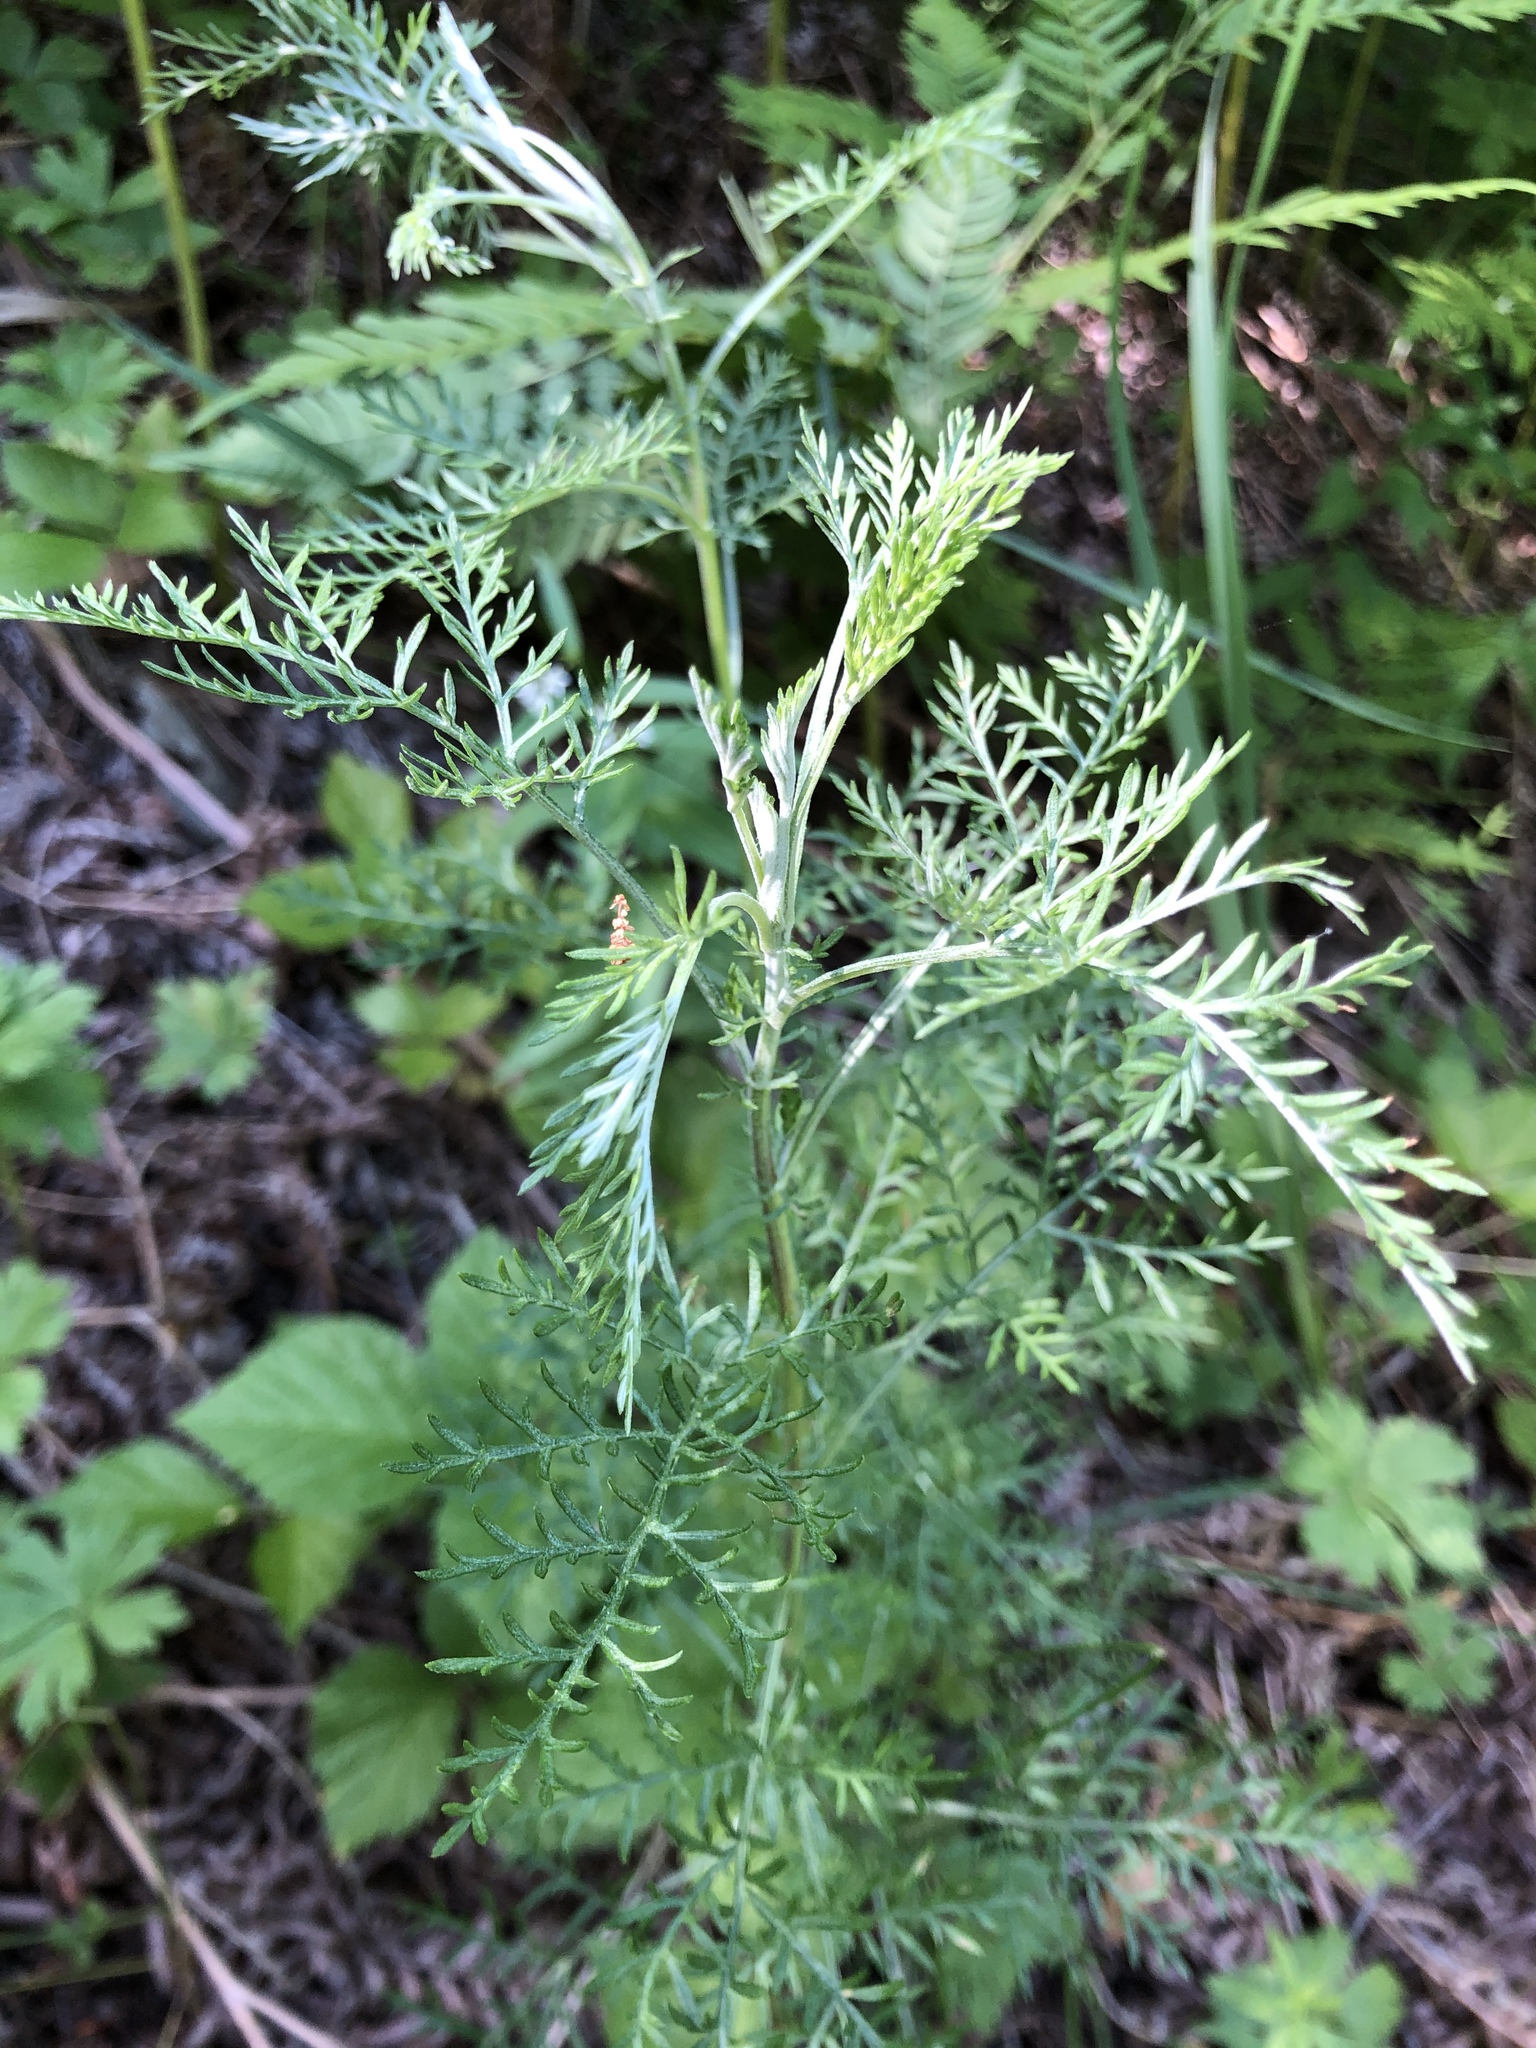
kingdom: Plantae
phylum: Tracheophyta
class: Magnoliopsida
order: Asterales
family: Asteraceae
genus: Artemisia
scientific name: Artemisia pontica
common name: Roman wormwood
